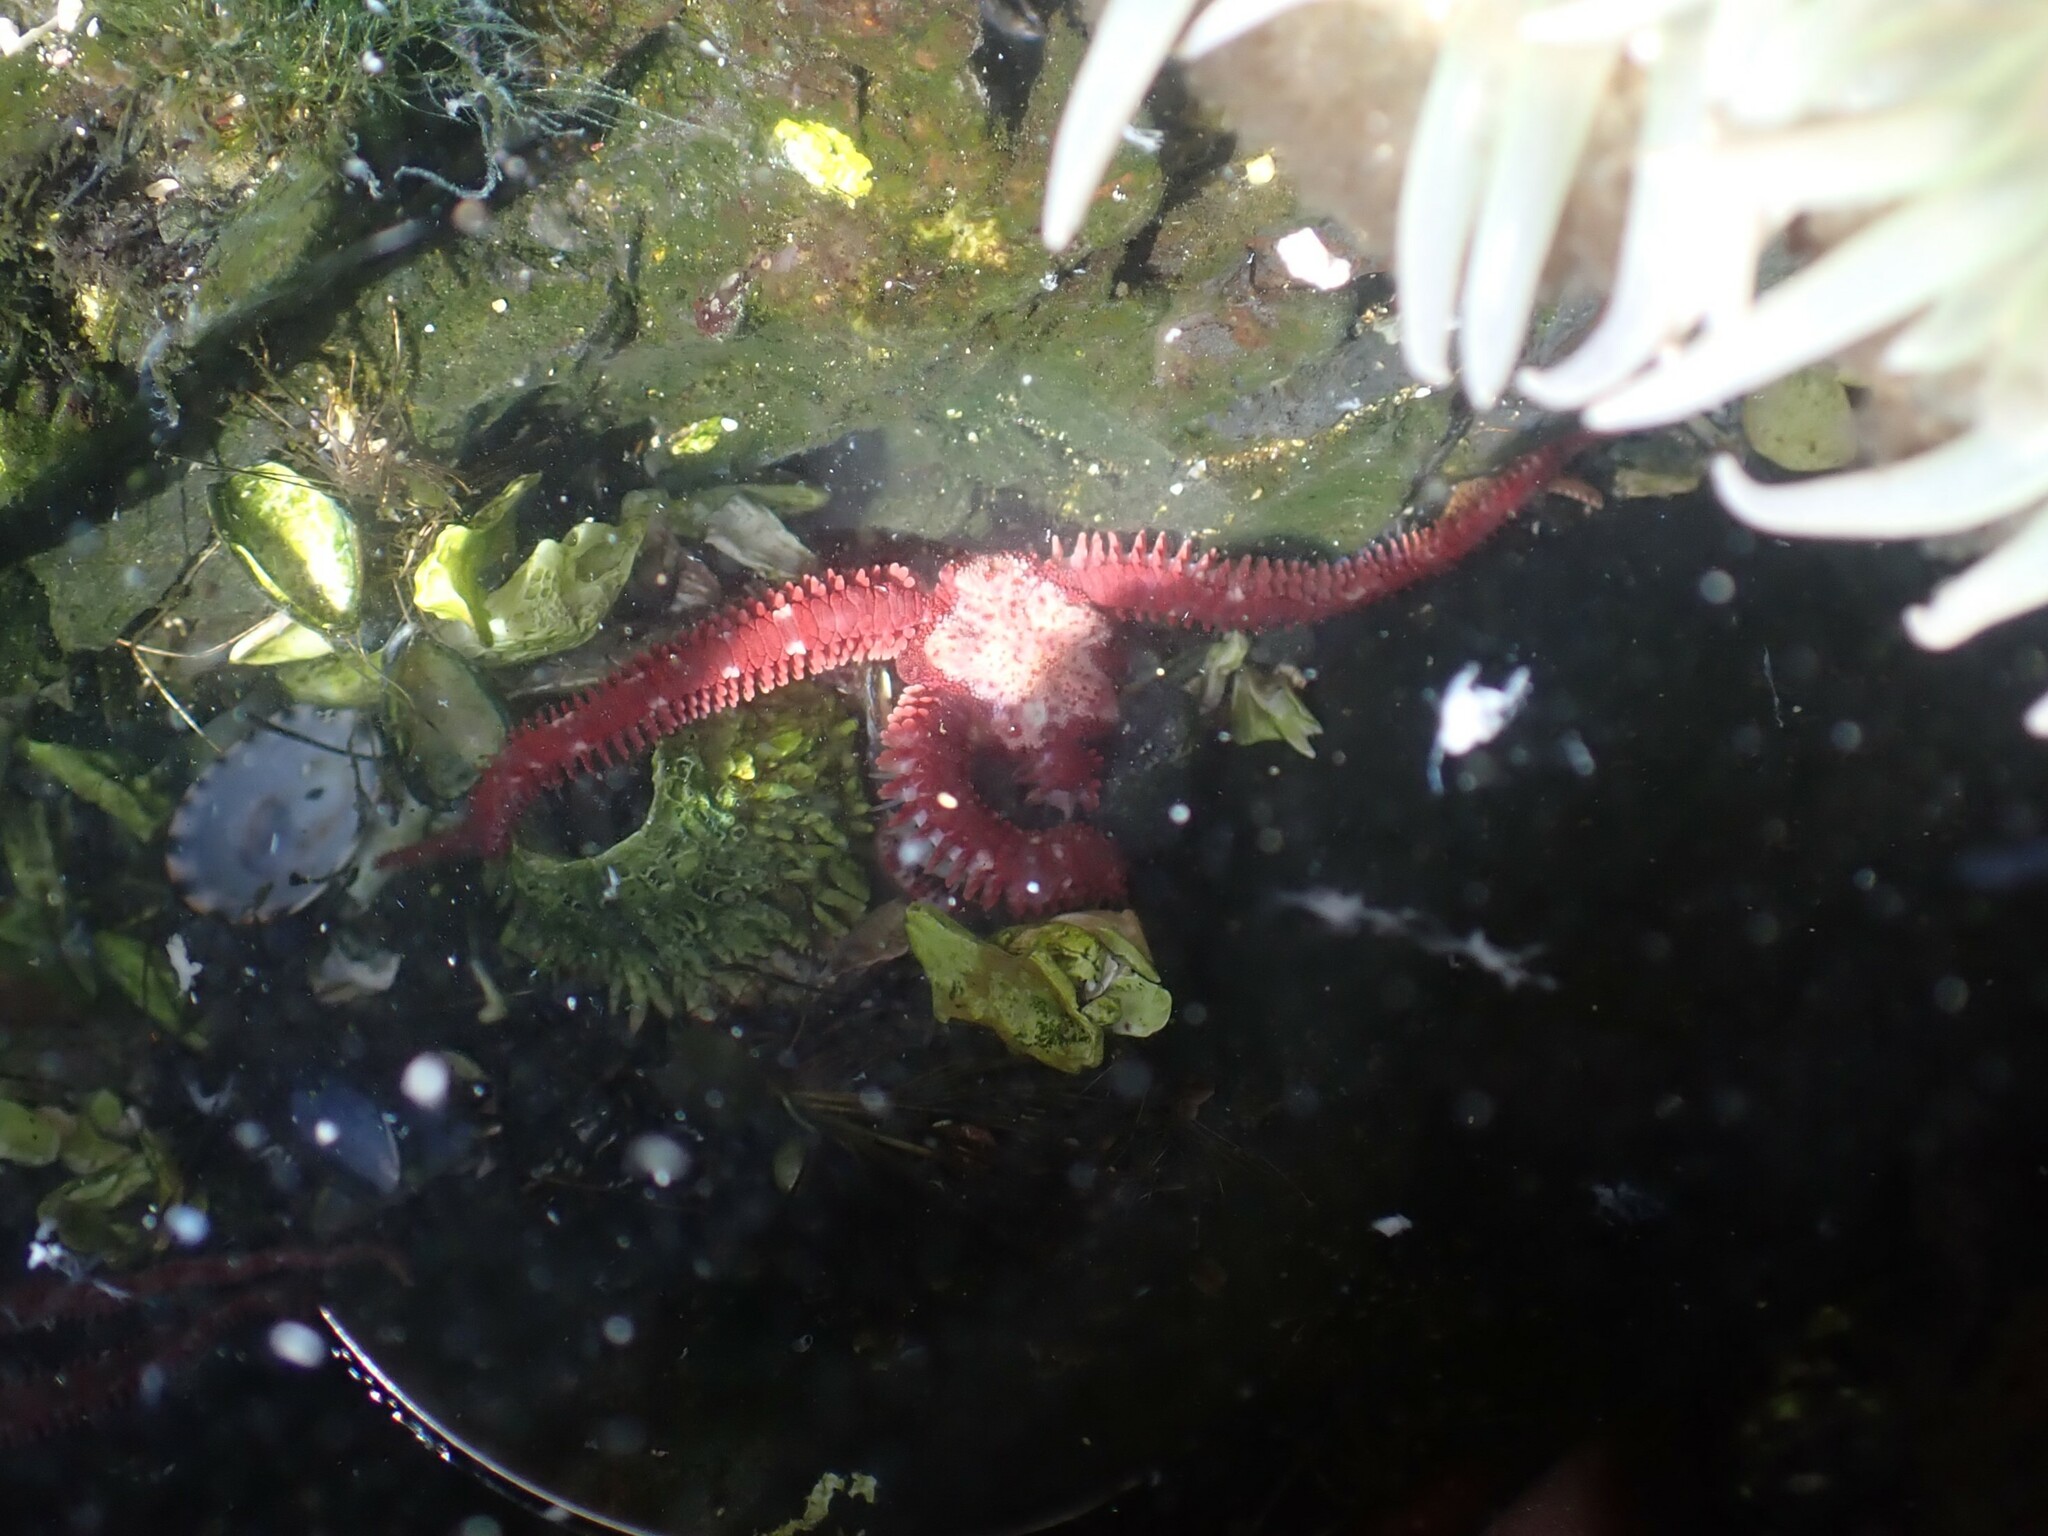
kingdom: Animalia
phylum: Echinodermata
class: Ophiuroidea
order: Amphilepidida
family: Ophiopholidae
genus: Ophiopholis
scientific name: Ophiopholis kennerlyi
